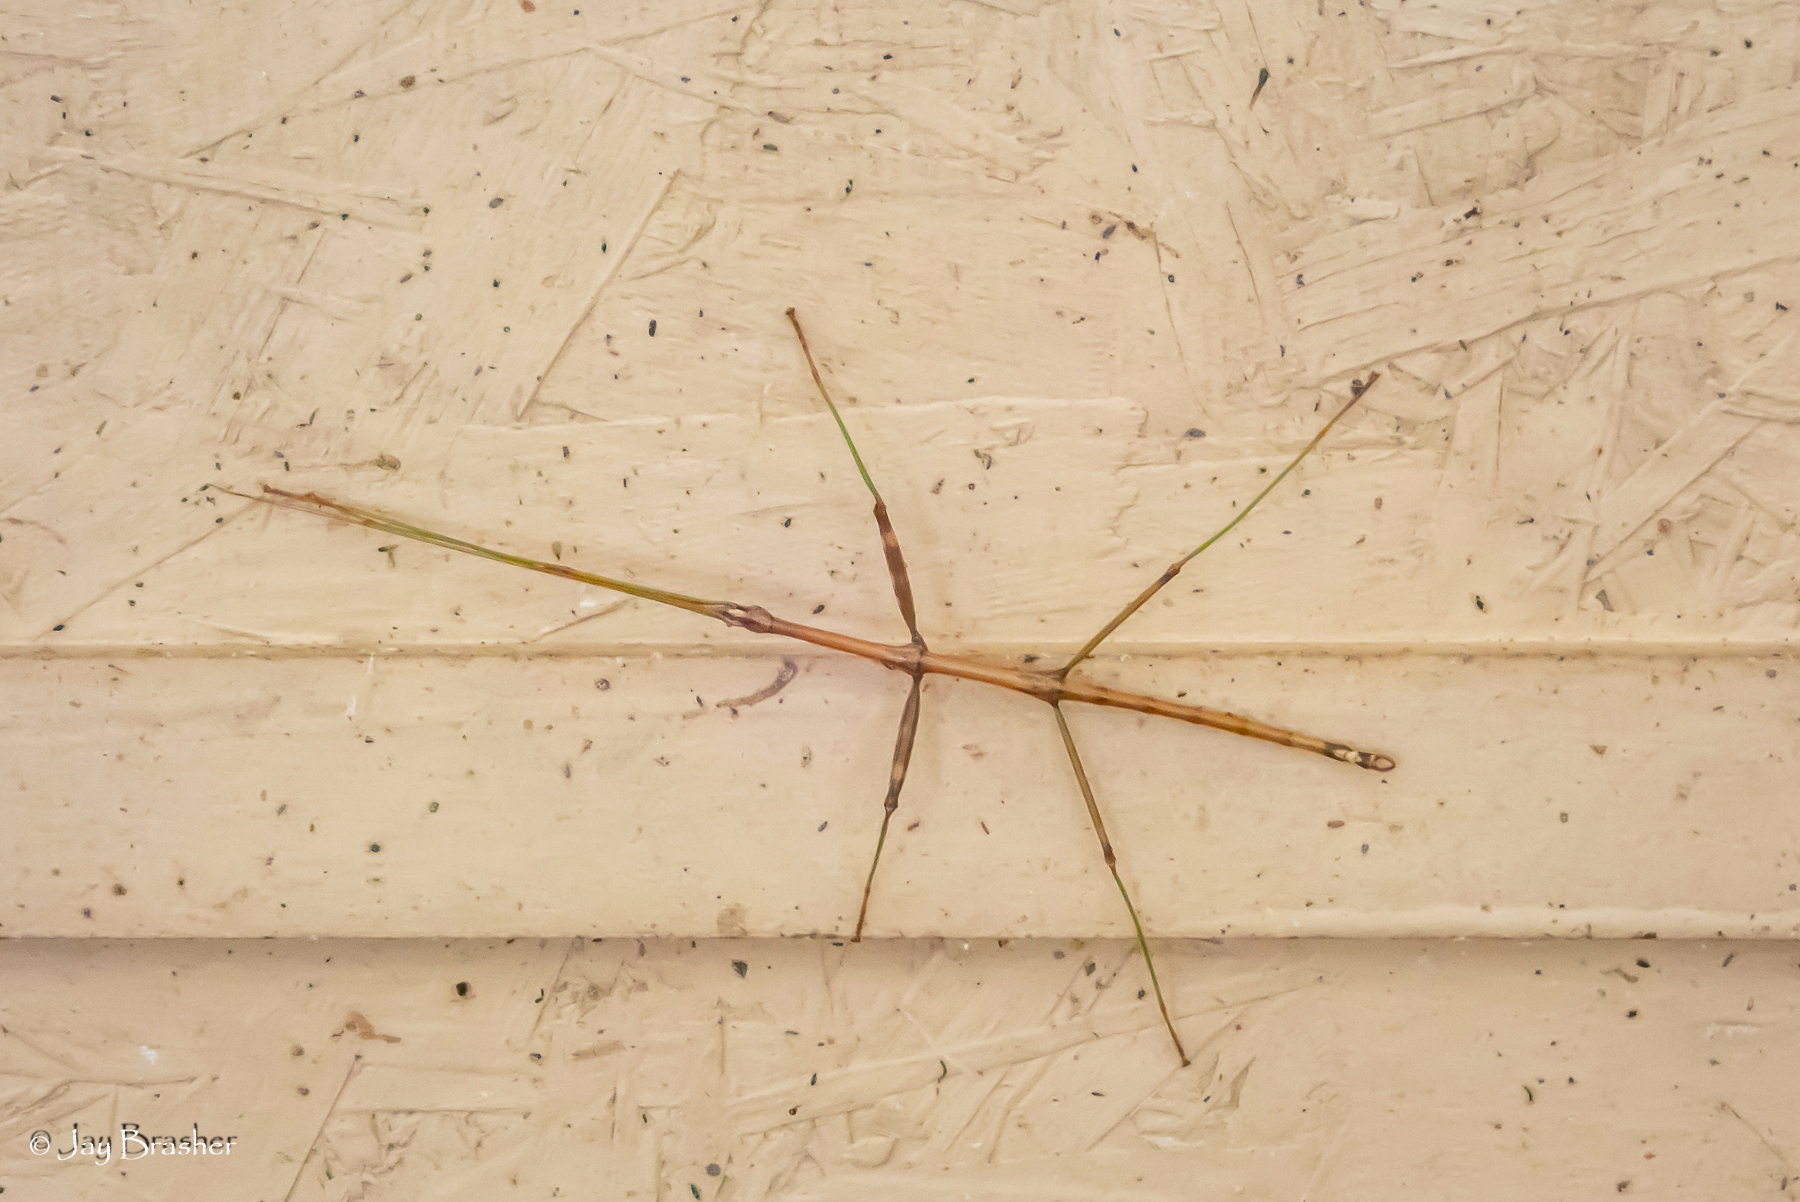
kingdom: Animalia
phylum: Arthropoda
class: Insecta
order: Phasmida
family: Diapheromeridae
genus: Diapheromera
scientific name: Diapheromera femorata
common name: Common american walkingstick
